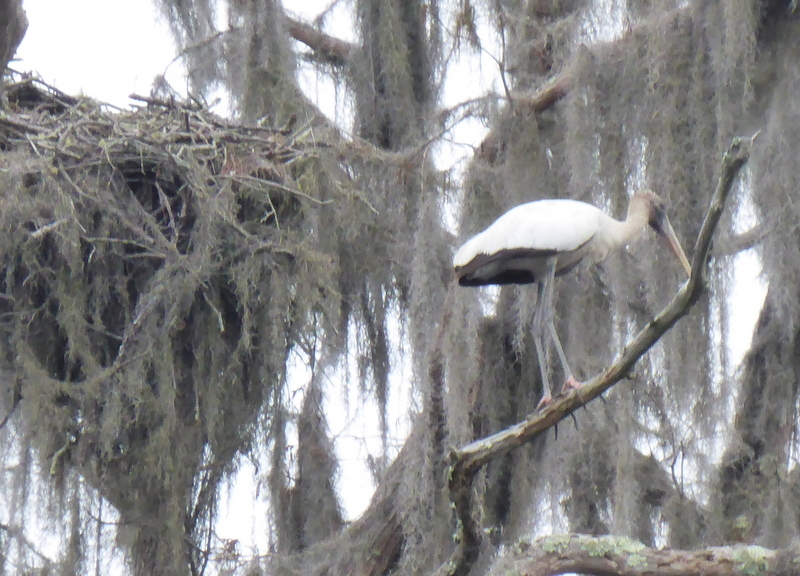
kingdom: Animalia
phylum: Chordata
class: Aves
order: Ciconiiformes
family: Ciconiidae
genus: Mycteria
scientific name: Mycteria americana
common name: Wood stork
